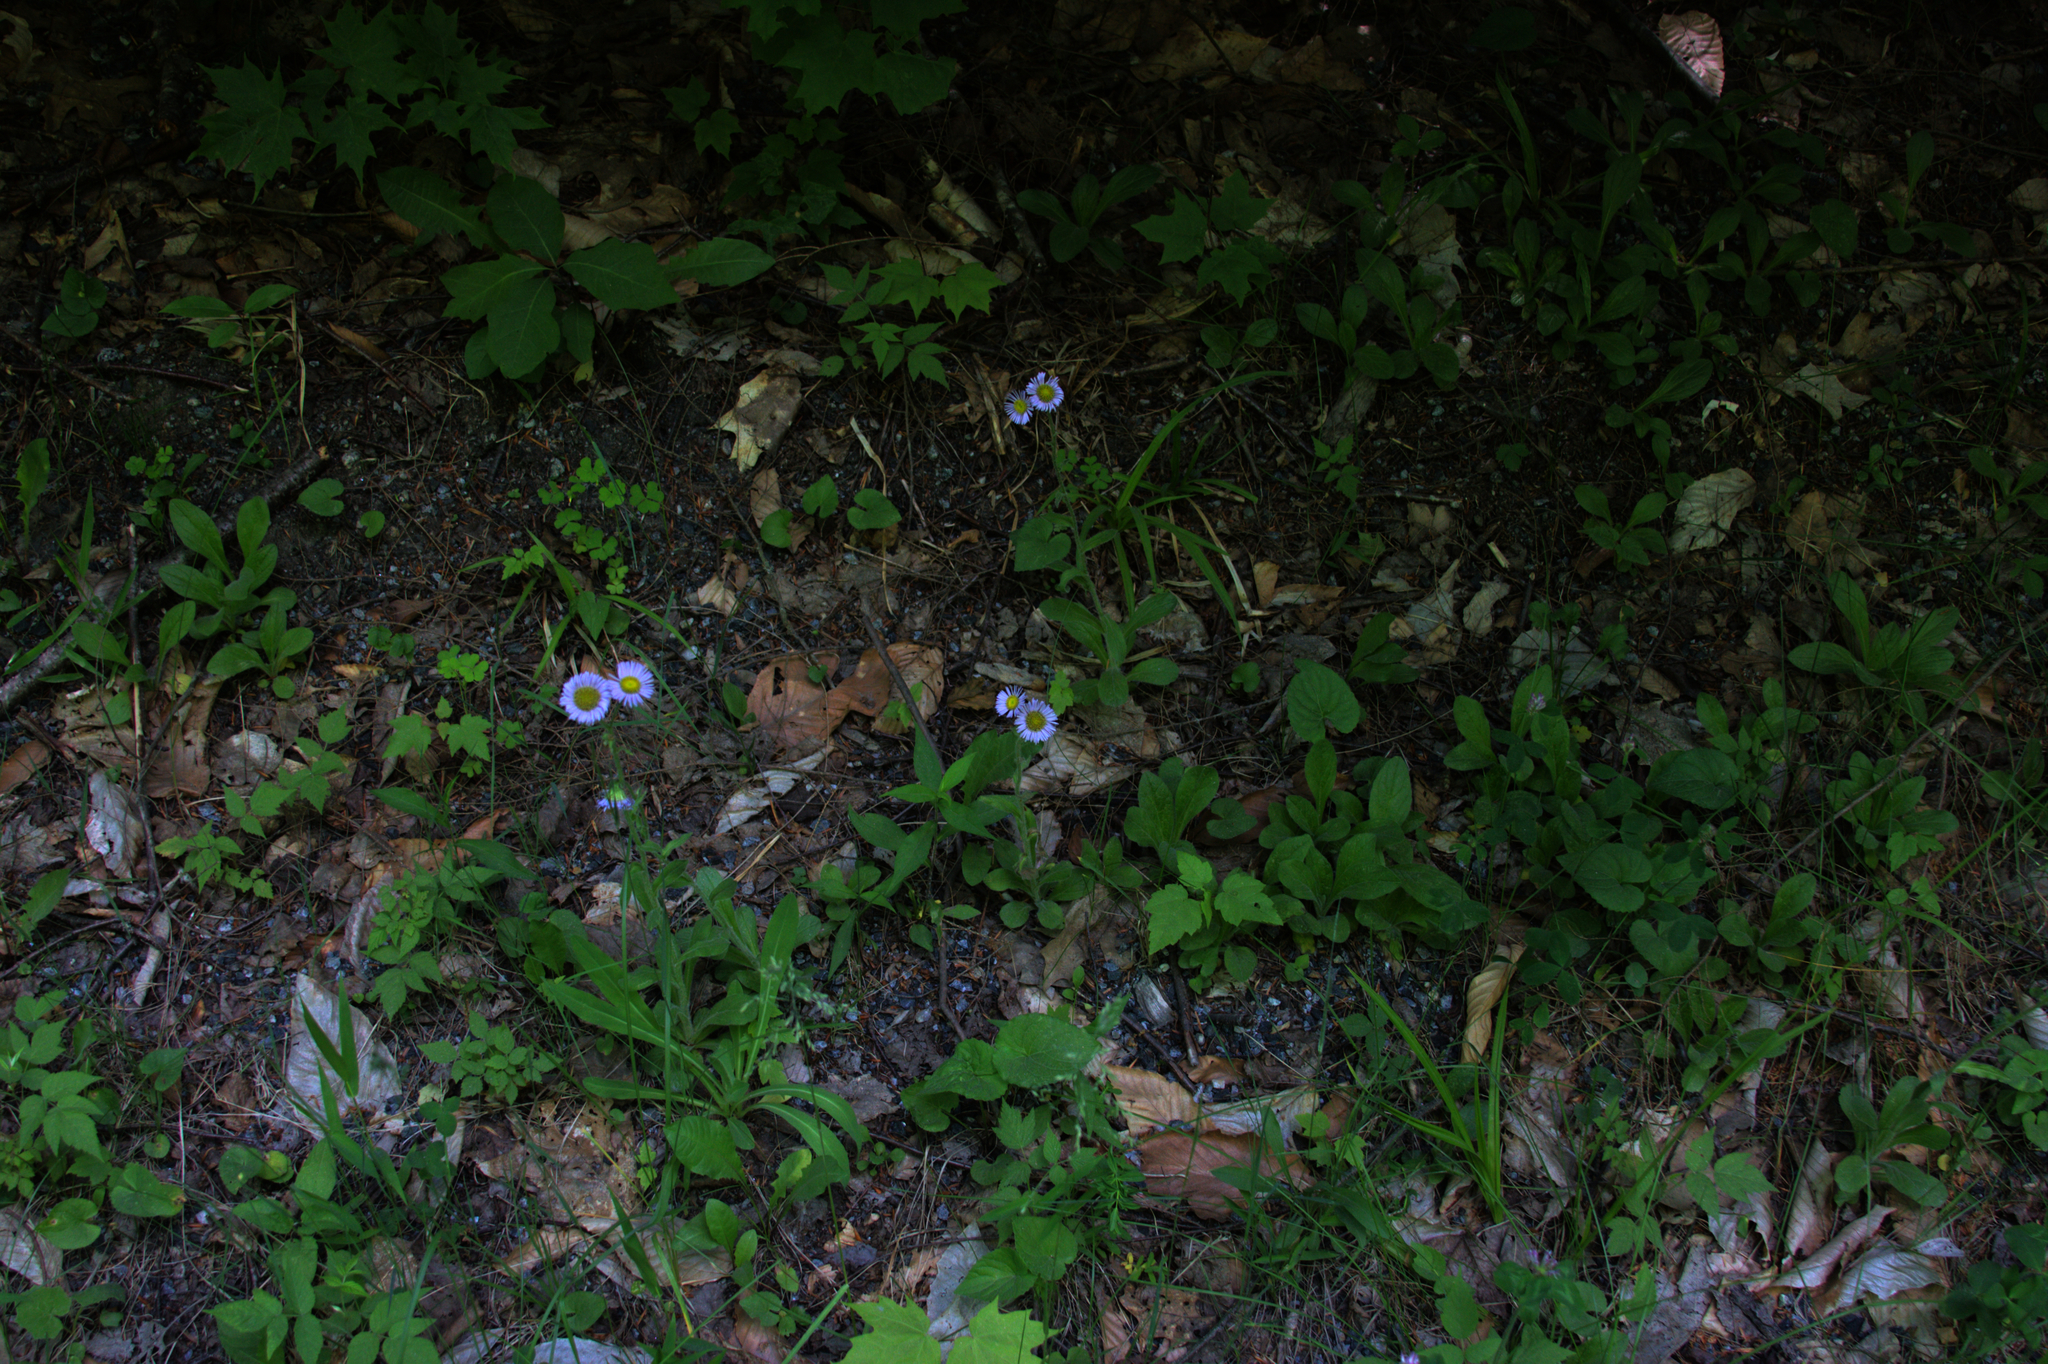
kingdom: Plantae
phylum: Tracheophyta
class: Magnoliopsida
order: Asterales
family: Asteraceae
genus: Erigeron
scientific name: Erigeron pulchellus
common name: Hairy fleabane
